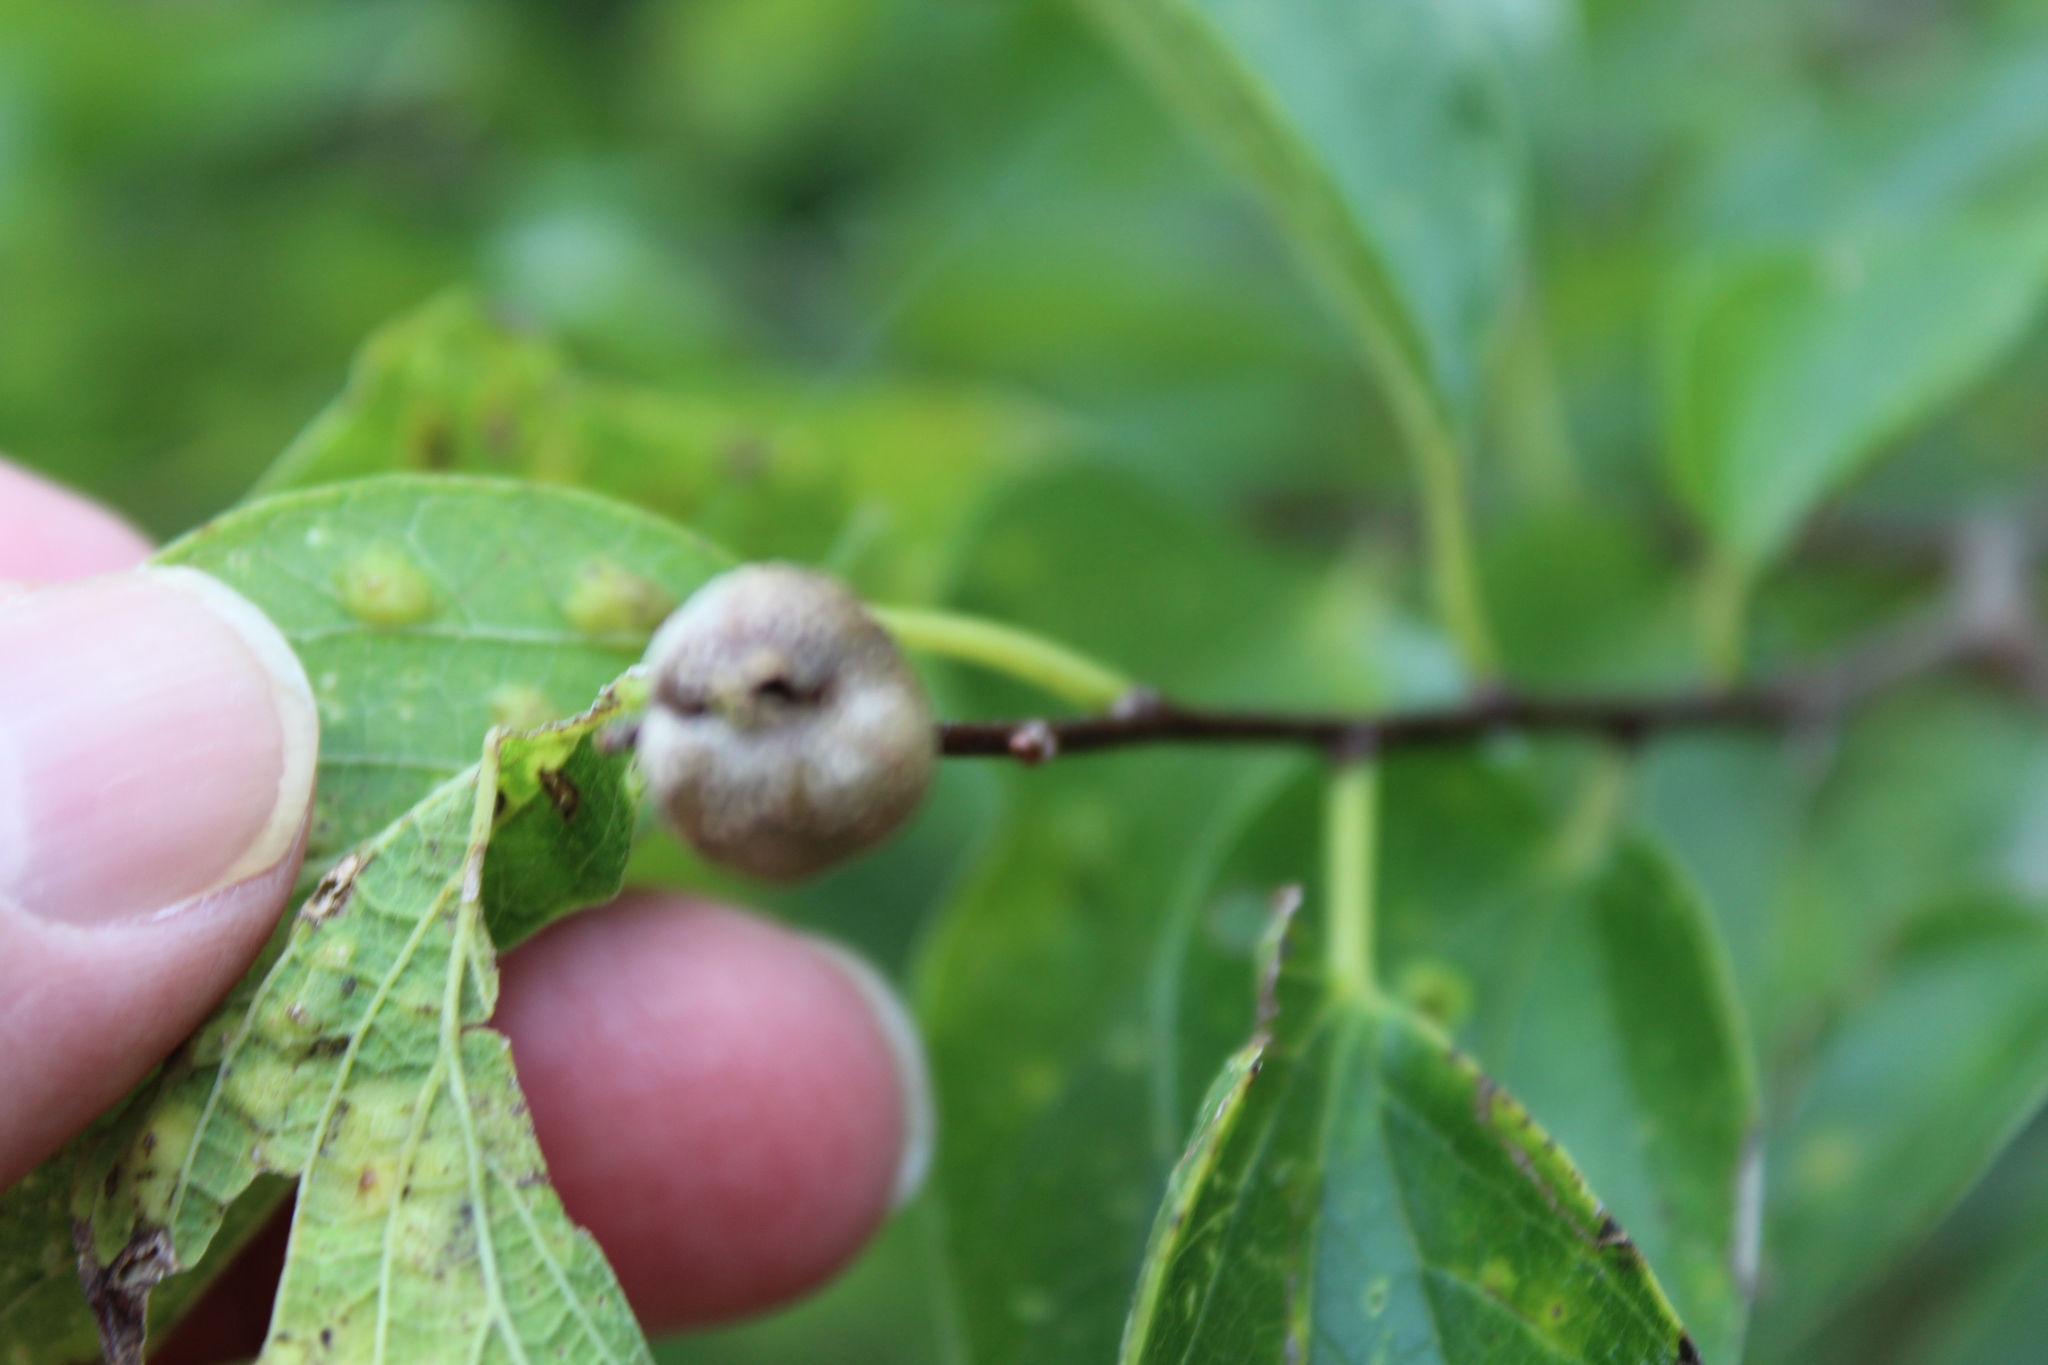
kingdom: Animalia
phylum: Arthropoda
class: Insecta
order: Hemiptera
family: Aphalaridae
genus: Pachypsylla
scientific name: Pachypsylla venusta
